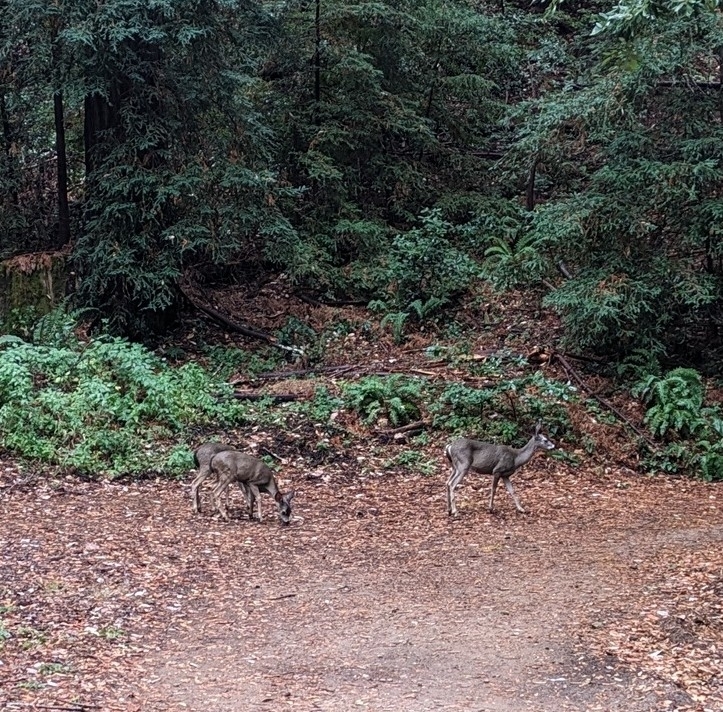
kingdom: Animalia
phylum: Chordata
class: Mammalia
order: Artiodactyla
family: Cervidae
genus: Odocoileus
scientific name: Odocoileus hemionus
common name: Mule deer
